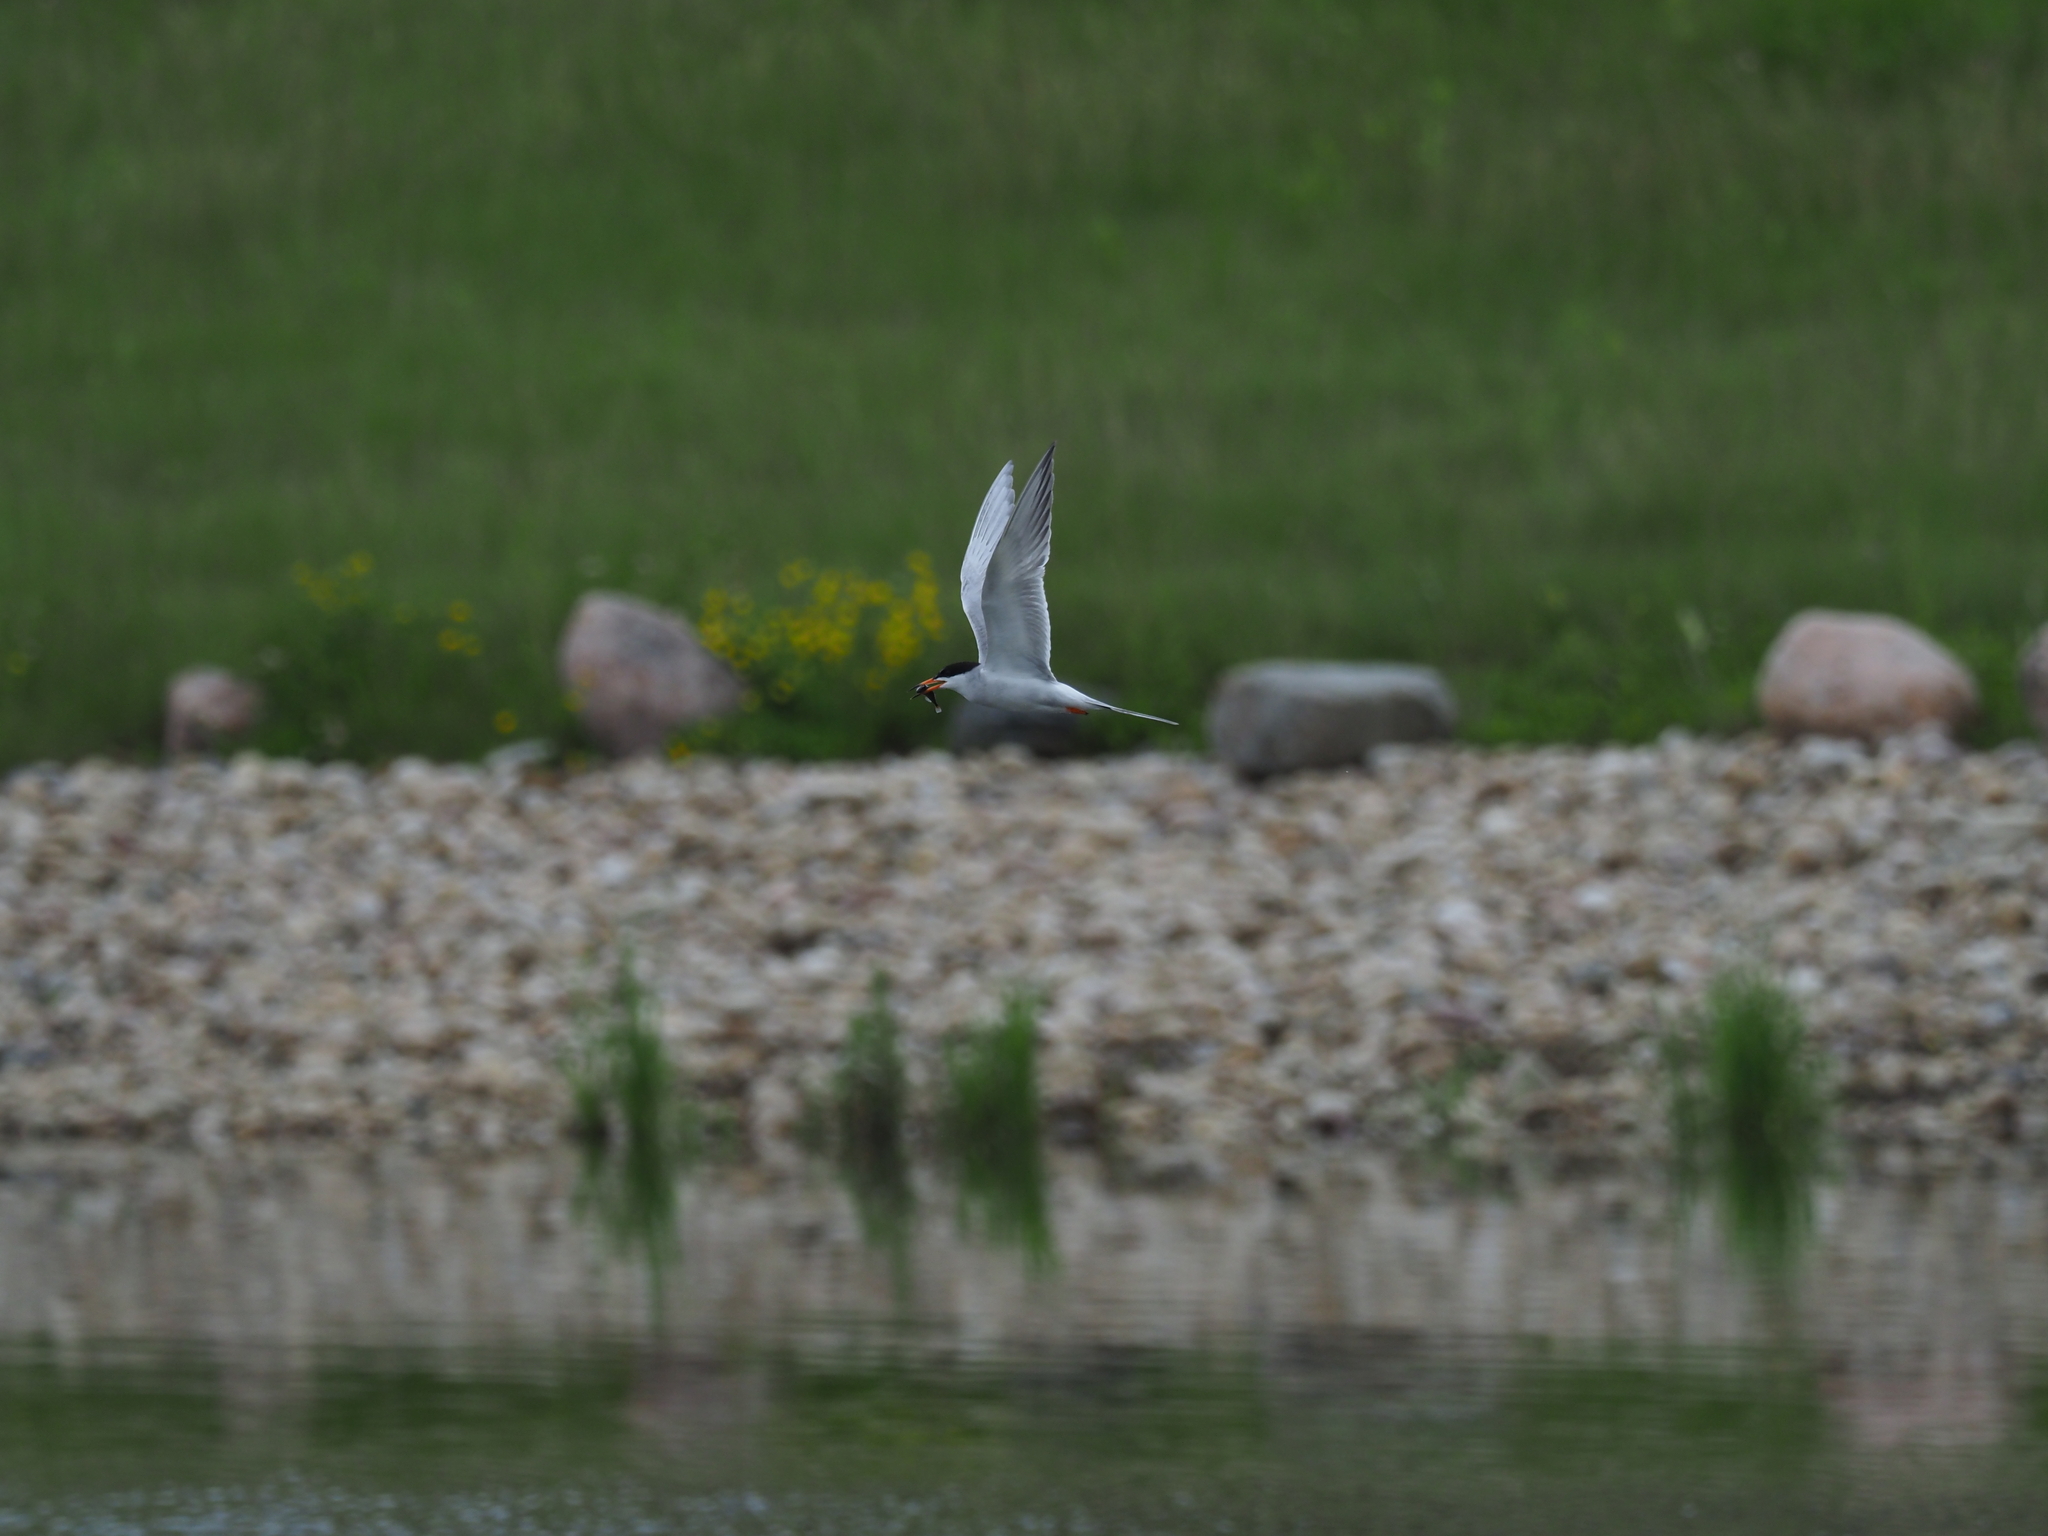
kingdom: Animalia
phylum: Chordata
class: Aves
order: Charadriiformes
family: Laridae
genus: Sterna
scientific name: Sterna forsteri
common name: Forster's tern
